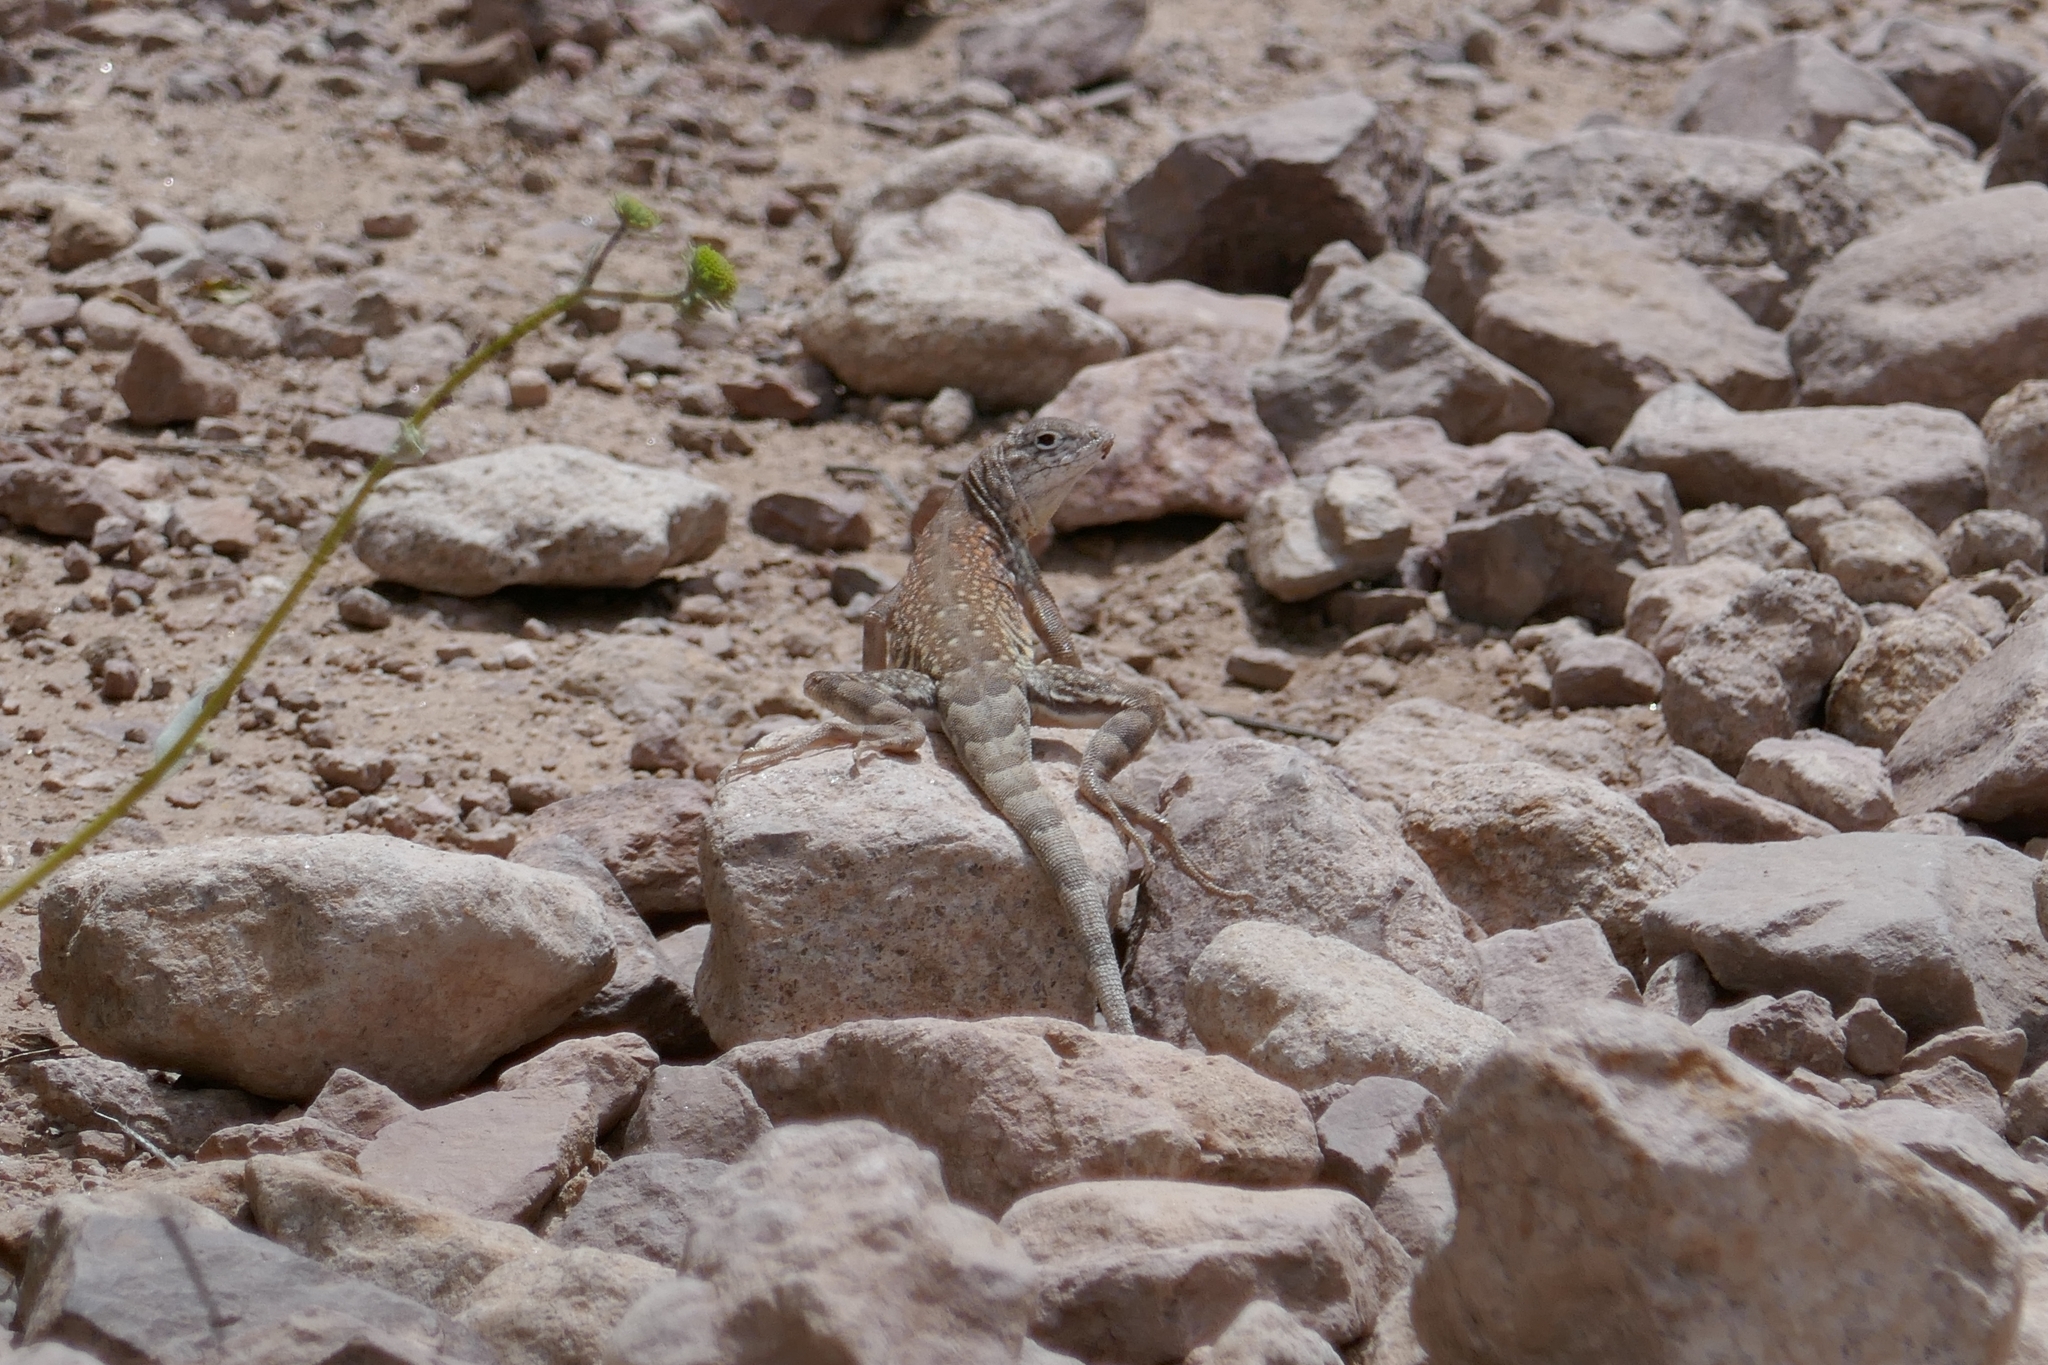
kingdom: Animalia
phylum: Chordata
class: Squamata
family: Phrynosomatidae
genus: Cophosaurus
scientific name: Cophosaurus texanus
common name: Greater earless lizard
